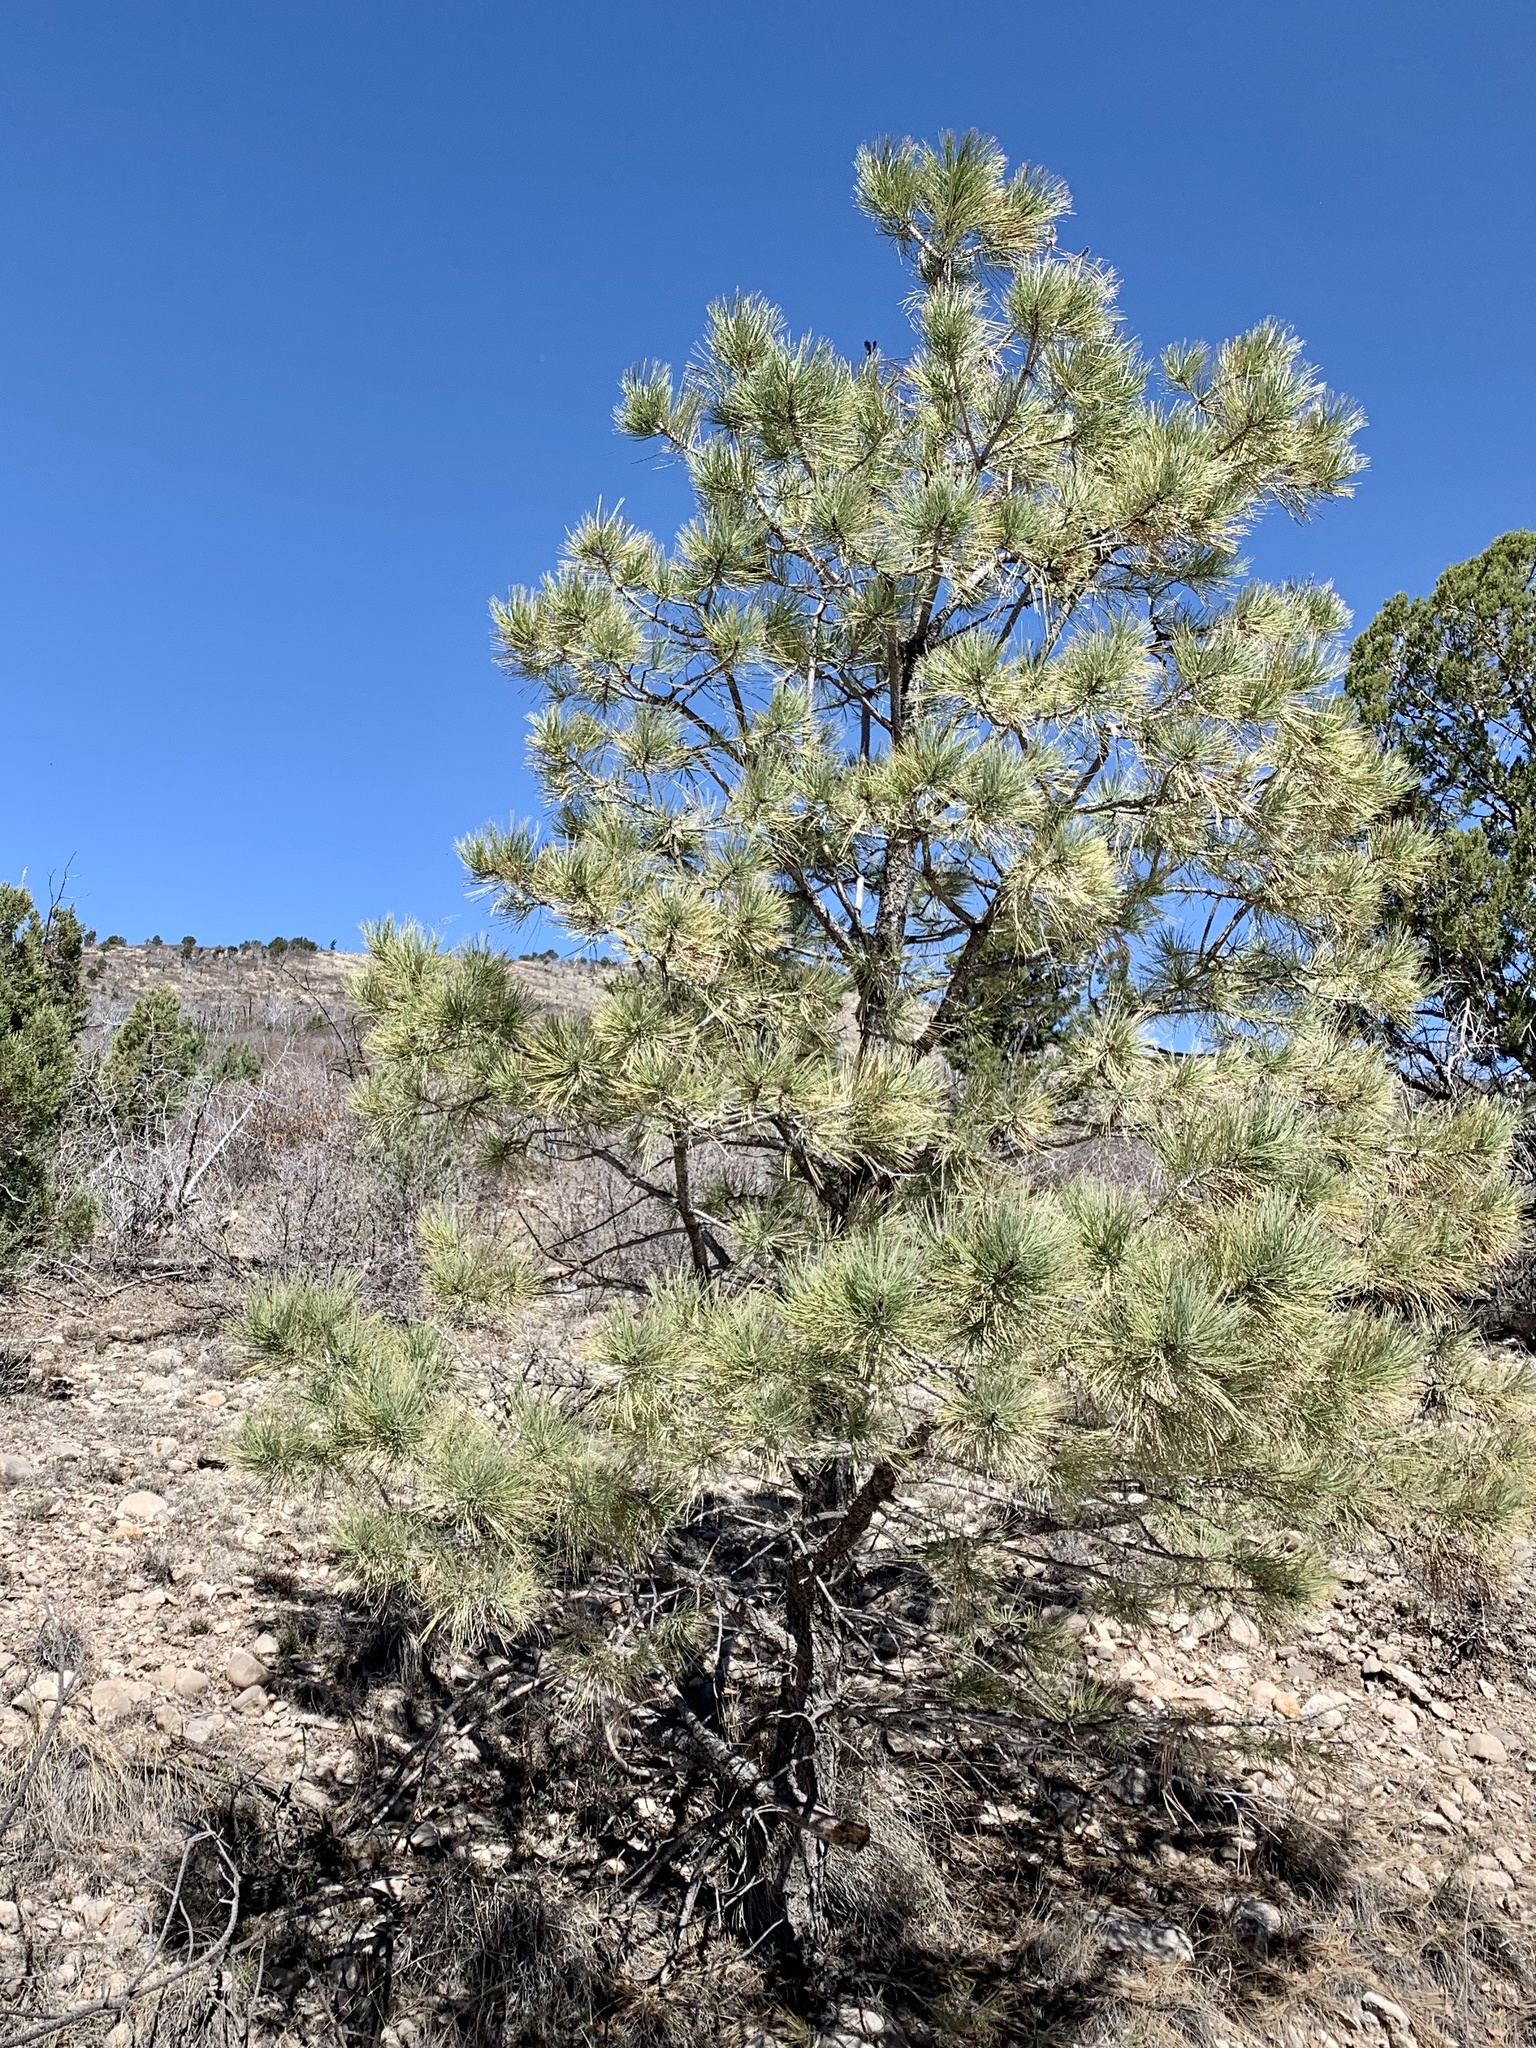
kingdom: Plantae
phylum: Tracheophyta
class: Pinopsida
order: Pinales
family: Pinaceae
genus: Pinus
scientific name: Pinus ponderosa
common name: Western yellow-pine
